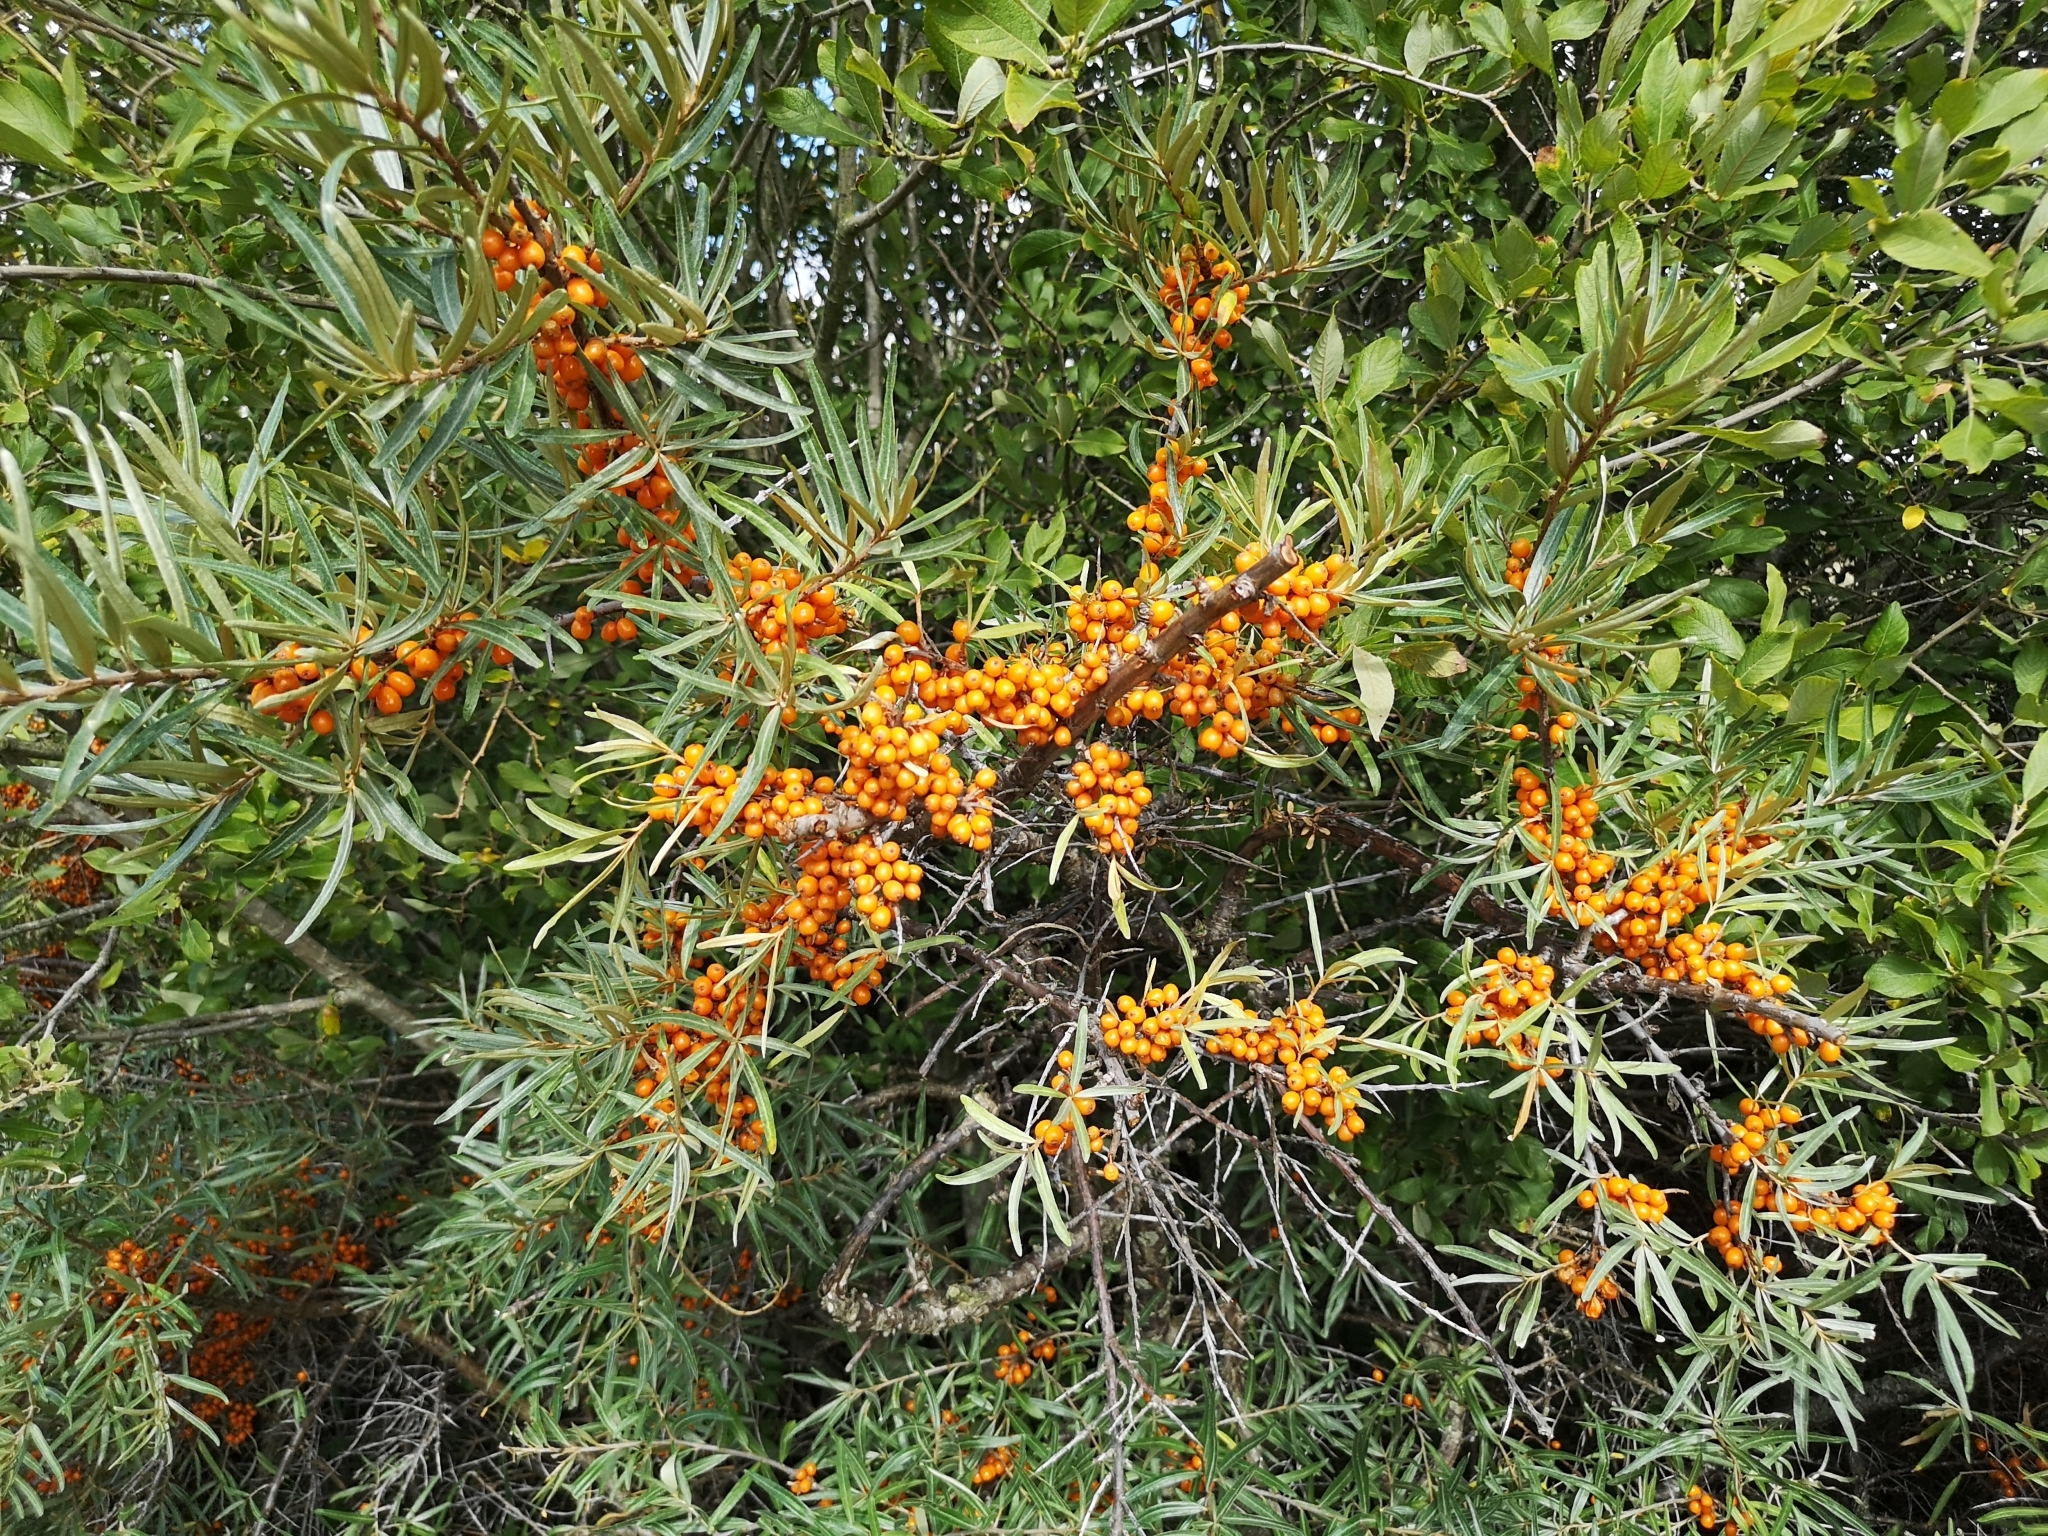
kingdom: Plantae
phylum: Tracheophyta
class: Magnoliopsida
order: Rosales
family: Elaeagnaceae
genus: Hippophae
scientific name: Hippophae rhamnoides
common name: Sea-buckthorn
